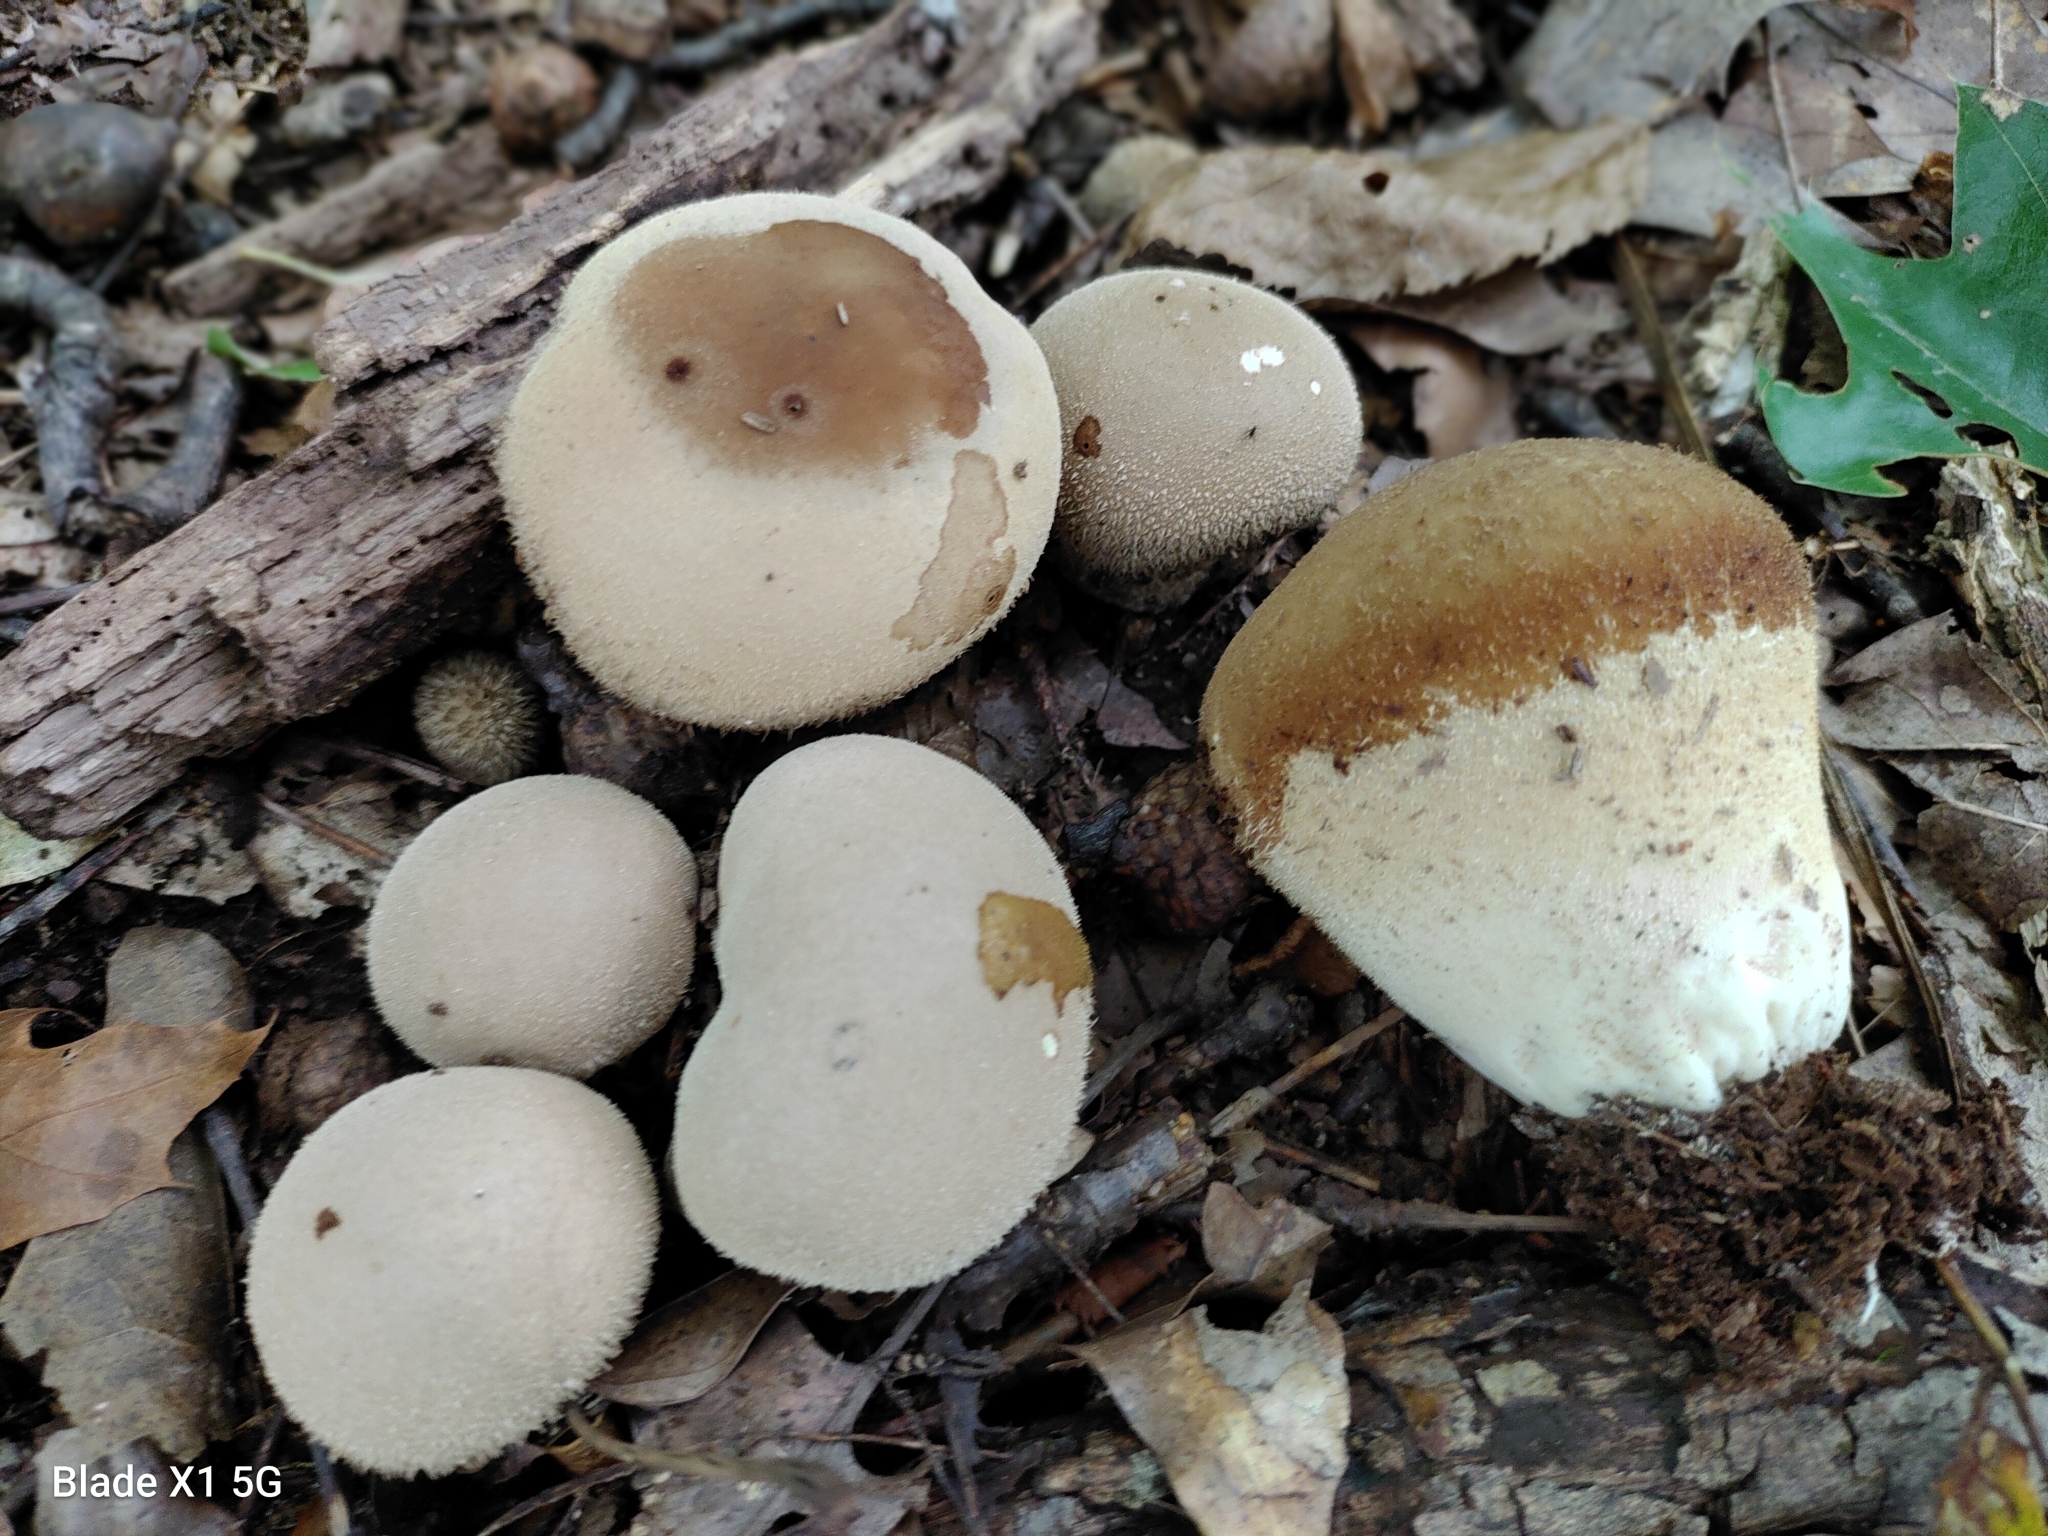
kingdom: Fungi
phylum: Basidiomycota
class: Agaricomycetes
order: Agaricales
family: Lycoperdaceae
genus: Lycoperdon
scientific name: Lycoperdon umbrinum
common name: Umber-brown puffball
